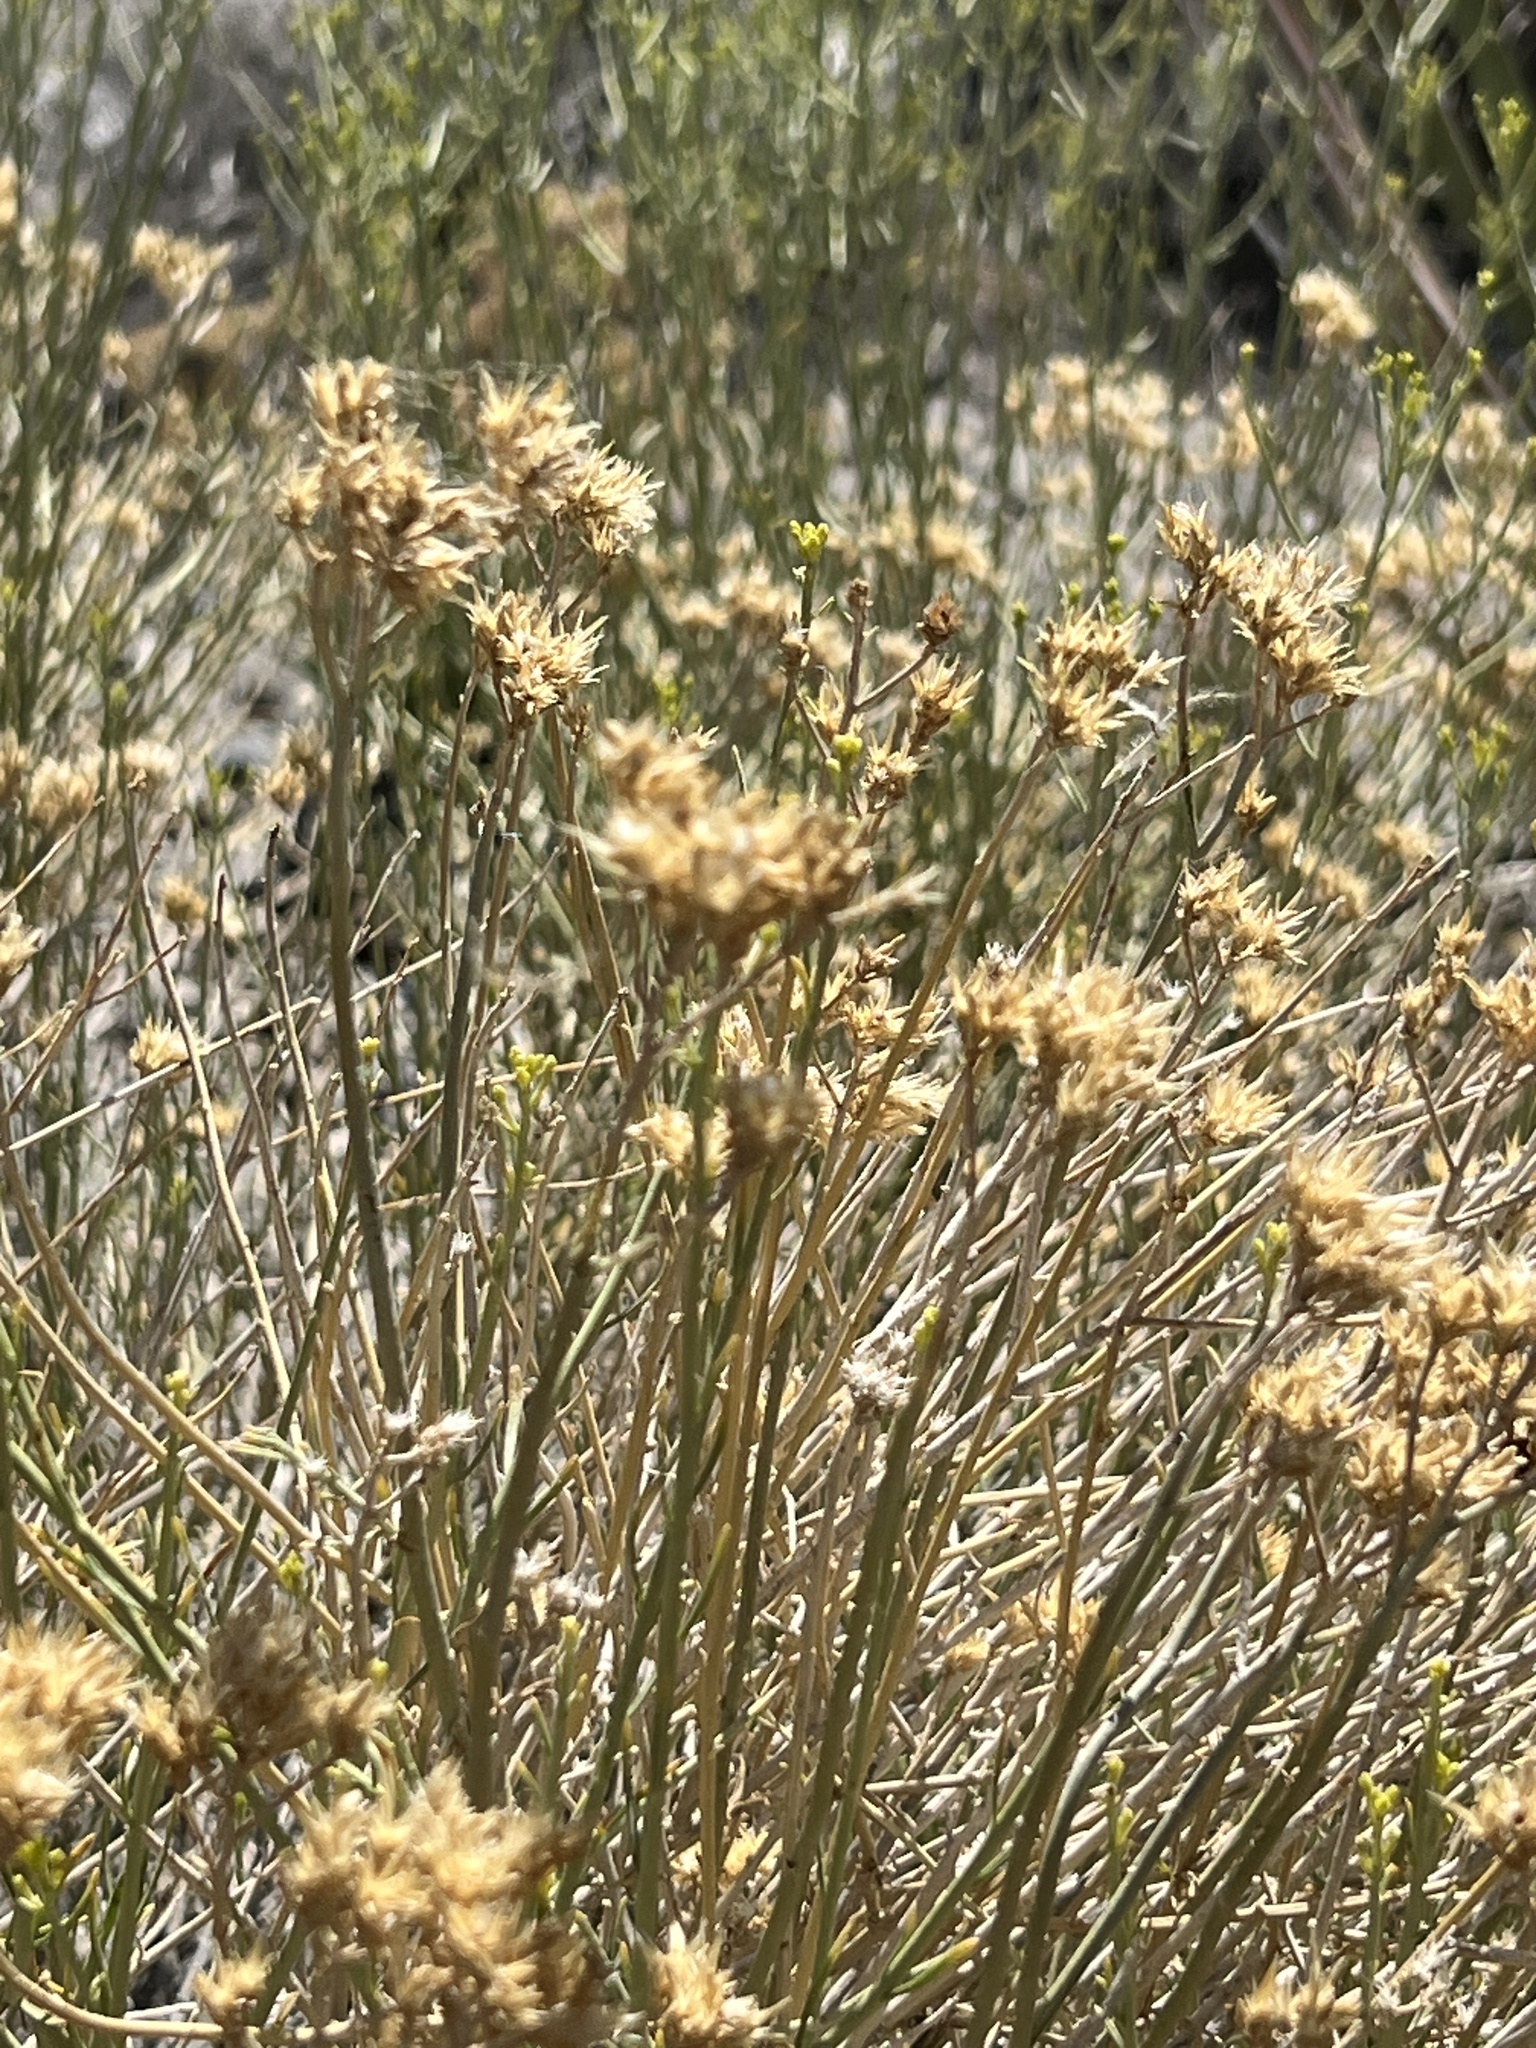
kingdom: Plantae
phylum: Tracheophyta
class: Magnoliopsida
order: Asterales
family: Asteraceae
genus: Ericameria
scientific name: Ericameria nauseosa
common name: Rubber rabbitbrush
